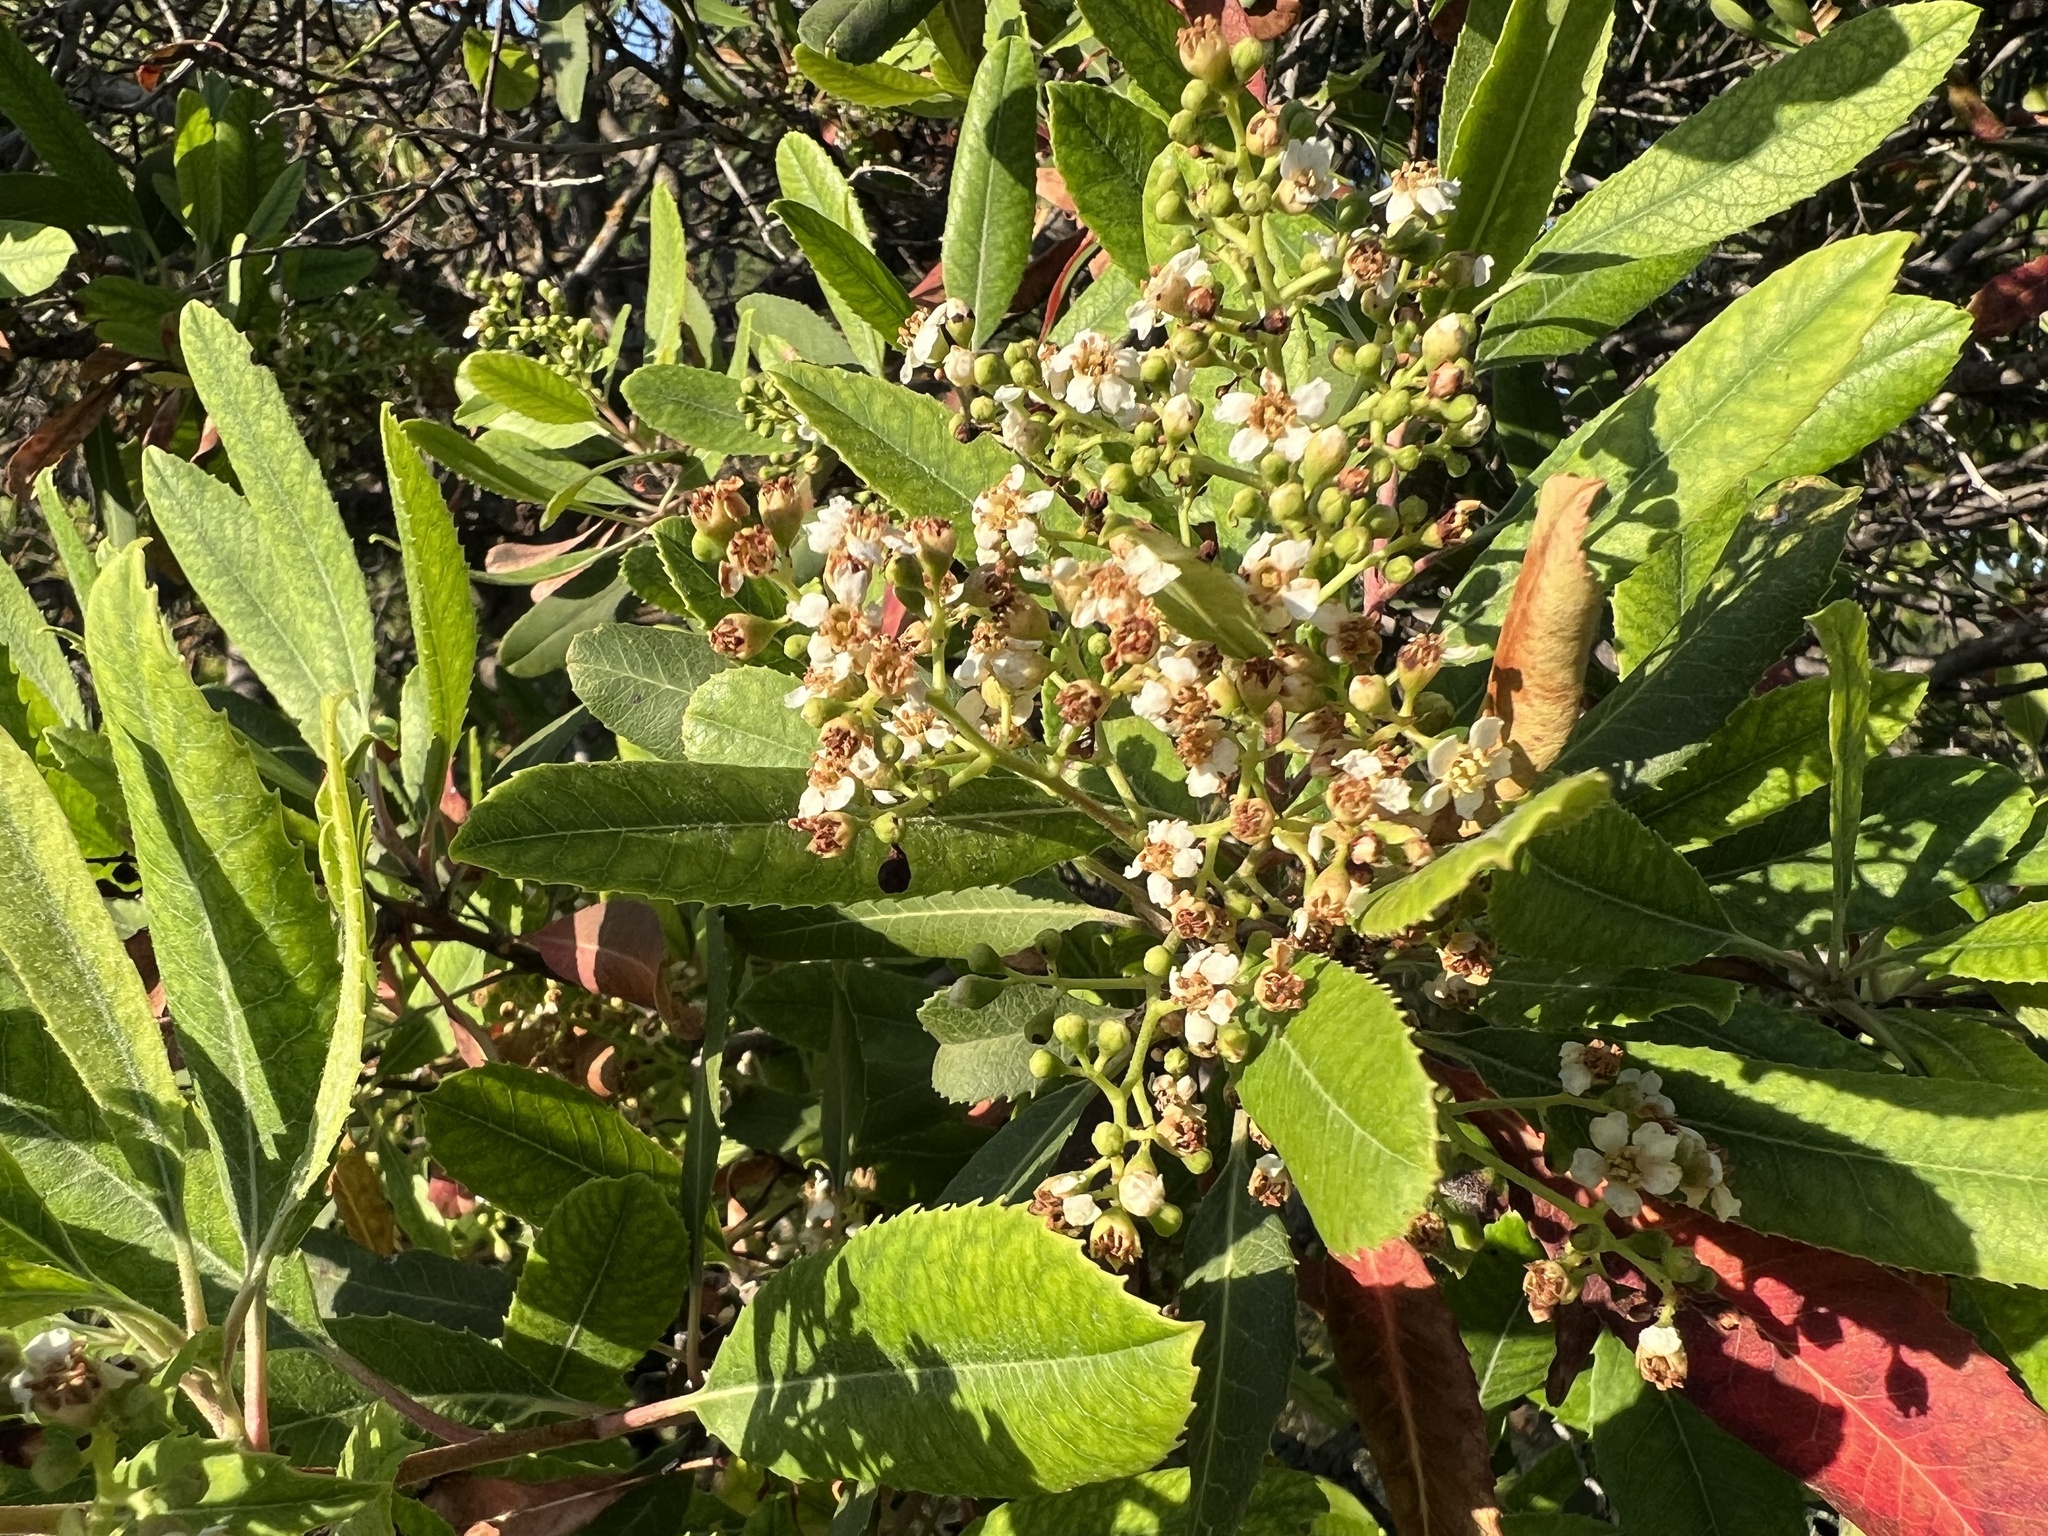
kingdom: Plantae
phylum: Tracheophyta
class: Magnoliopsida
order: Rosales
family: Rosaceae
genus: Heteromeles
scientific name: Heteromeles arbutifolia
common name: California-holly
